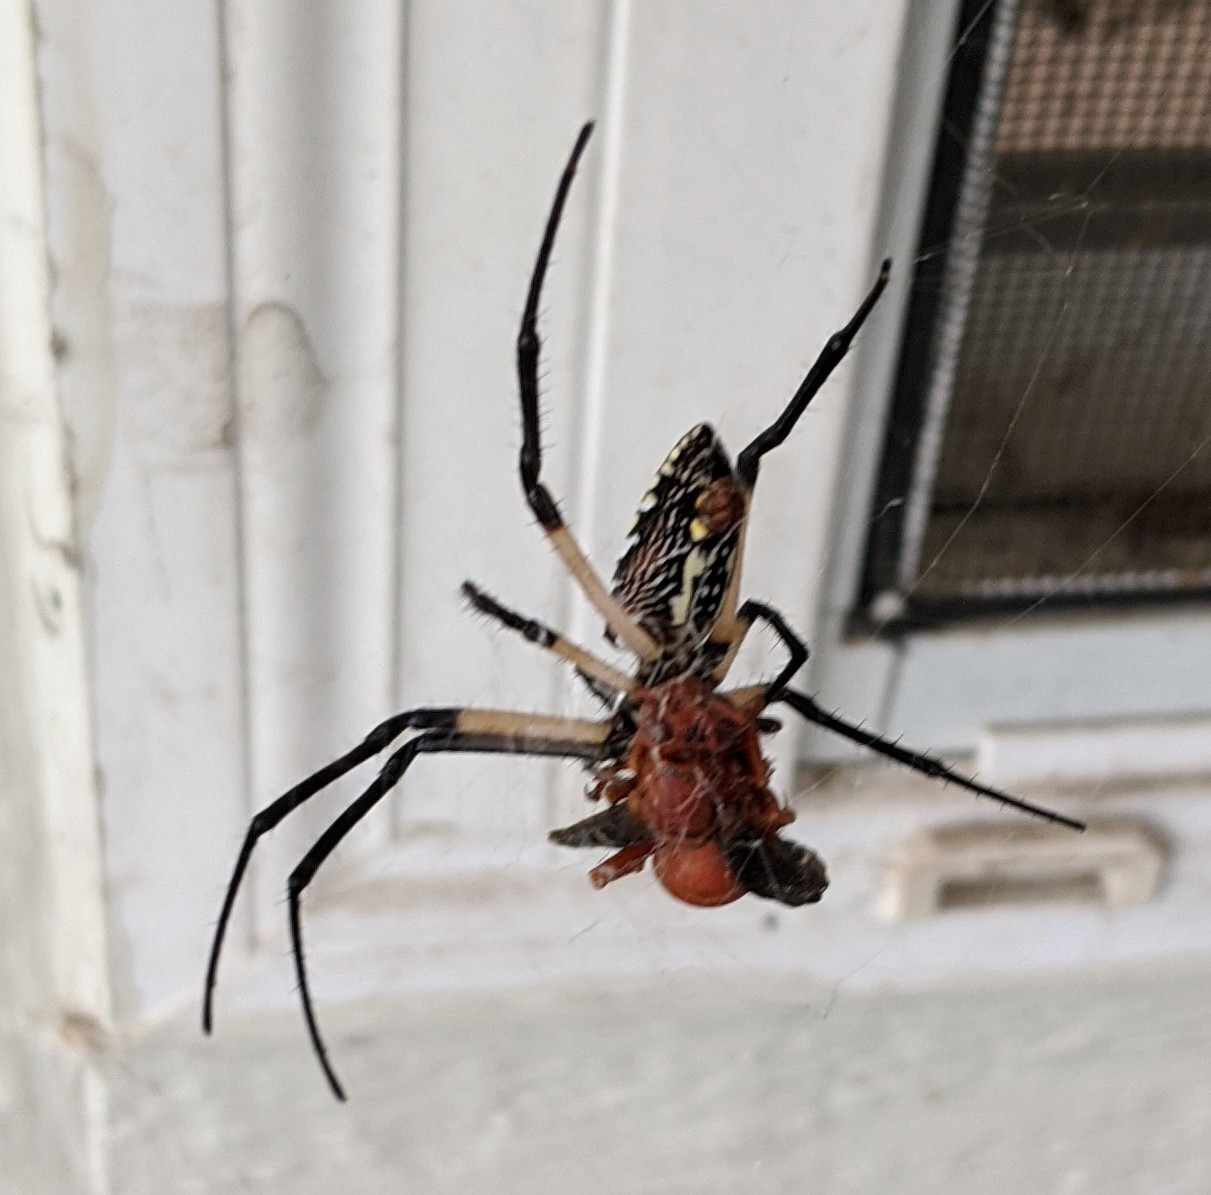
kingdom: Animalia
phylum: Arthropoda
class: Arachnida
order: Araneae
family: Araneidae
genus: Argiope
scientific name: Argiope aurantia
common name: Orb weavers
